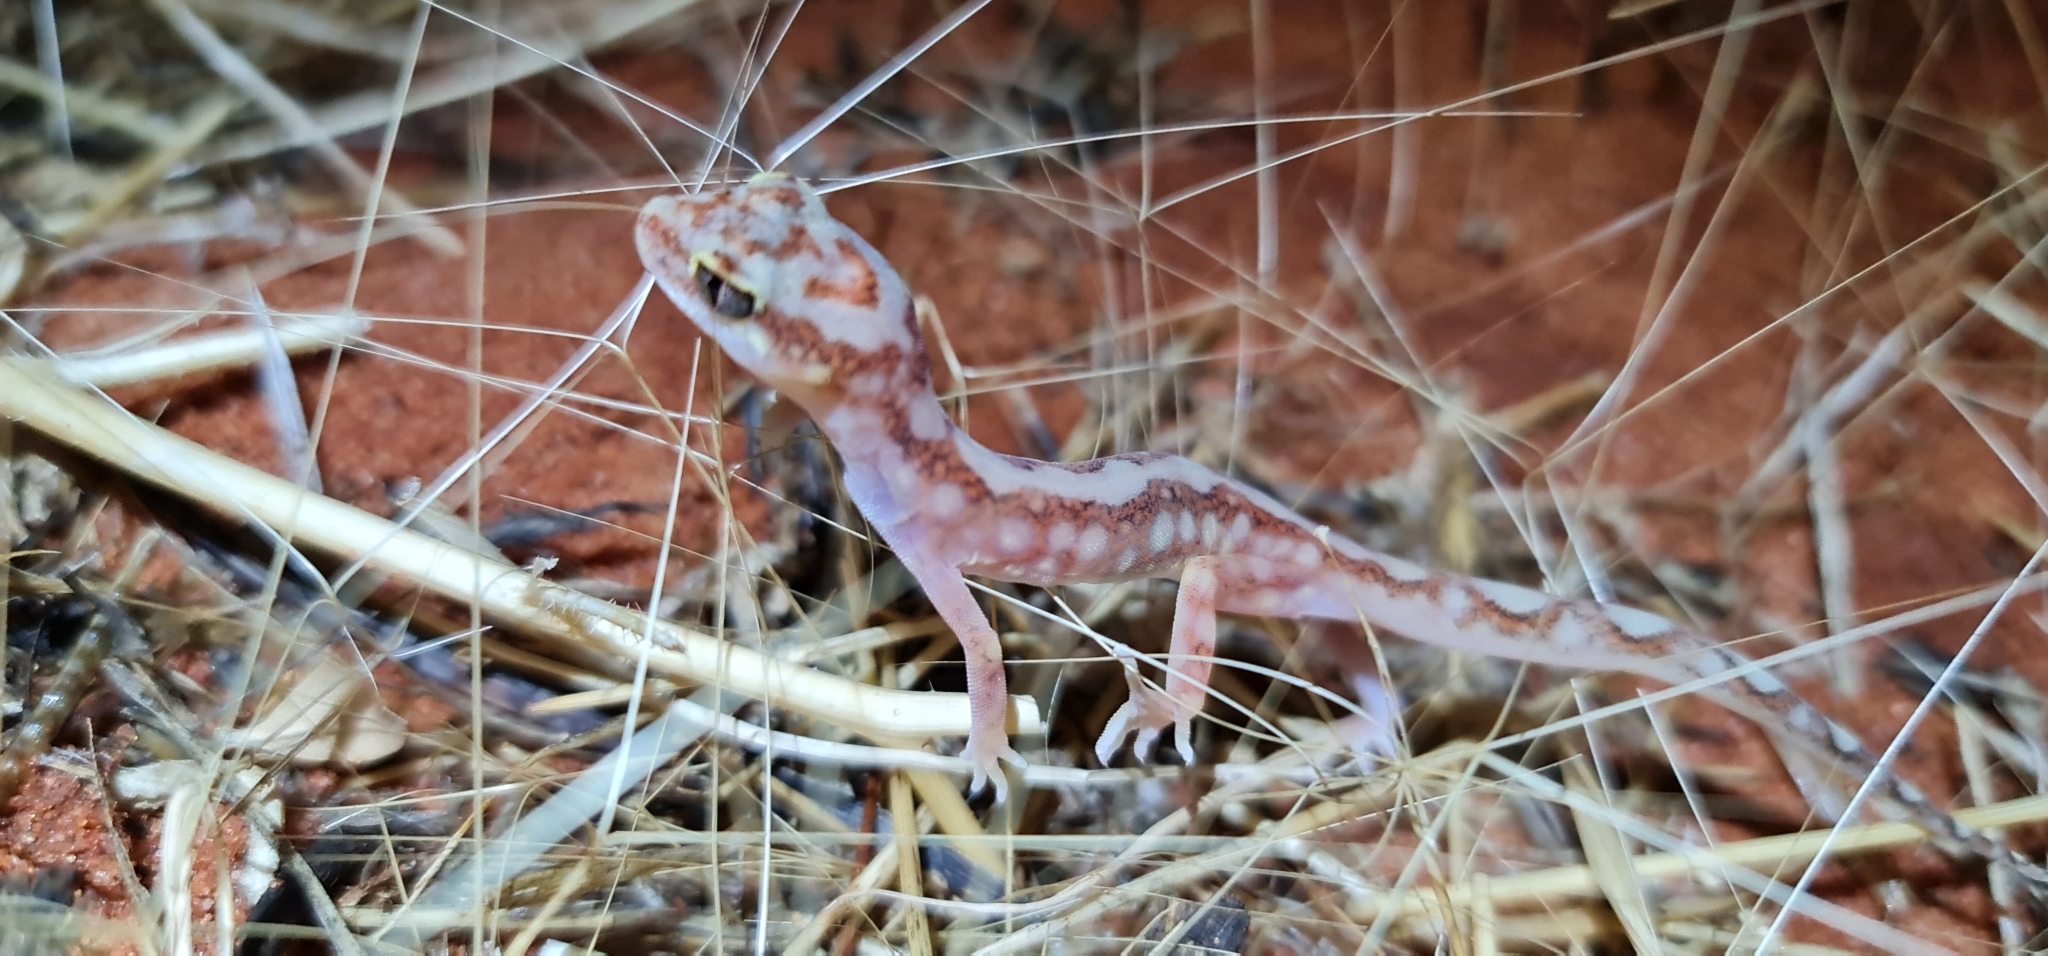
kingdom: Animalia
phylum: Chordata
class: Squamata
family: Diplodactylidae
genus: Lucasium
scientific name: Lucasium damaeum
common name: Beaded gecko
